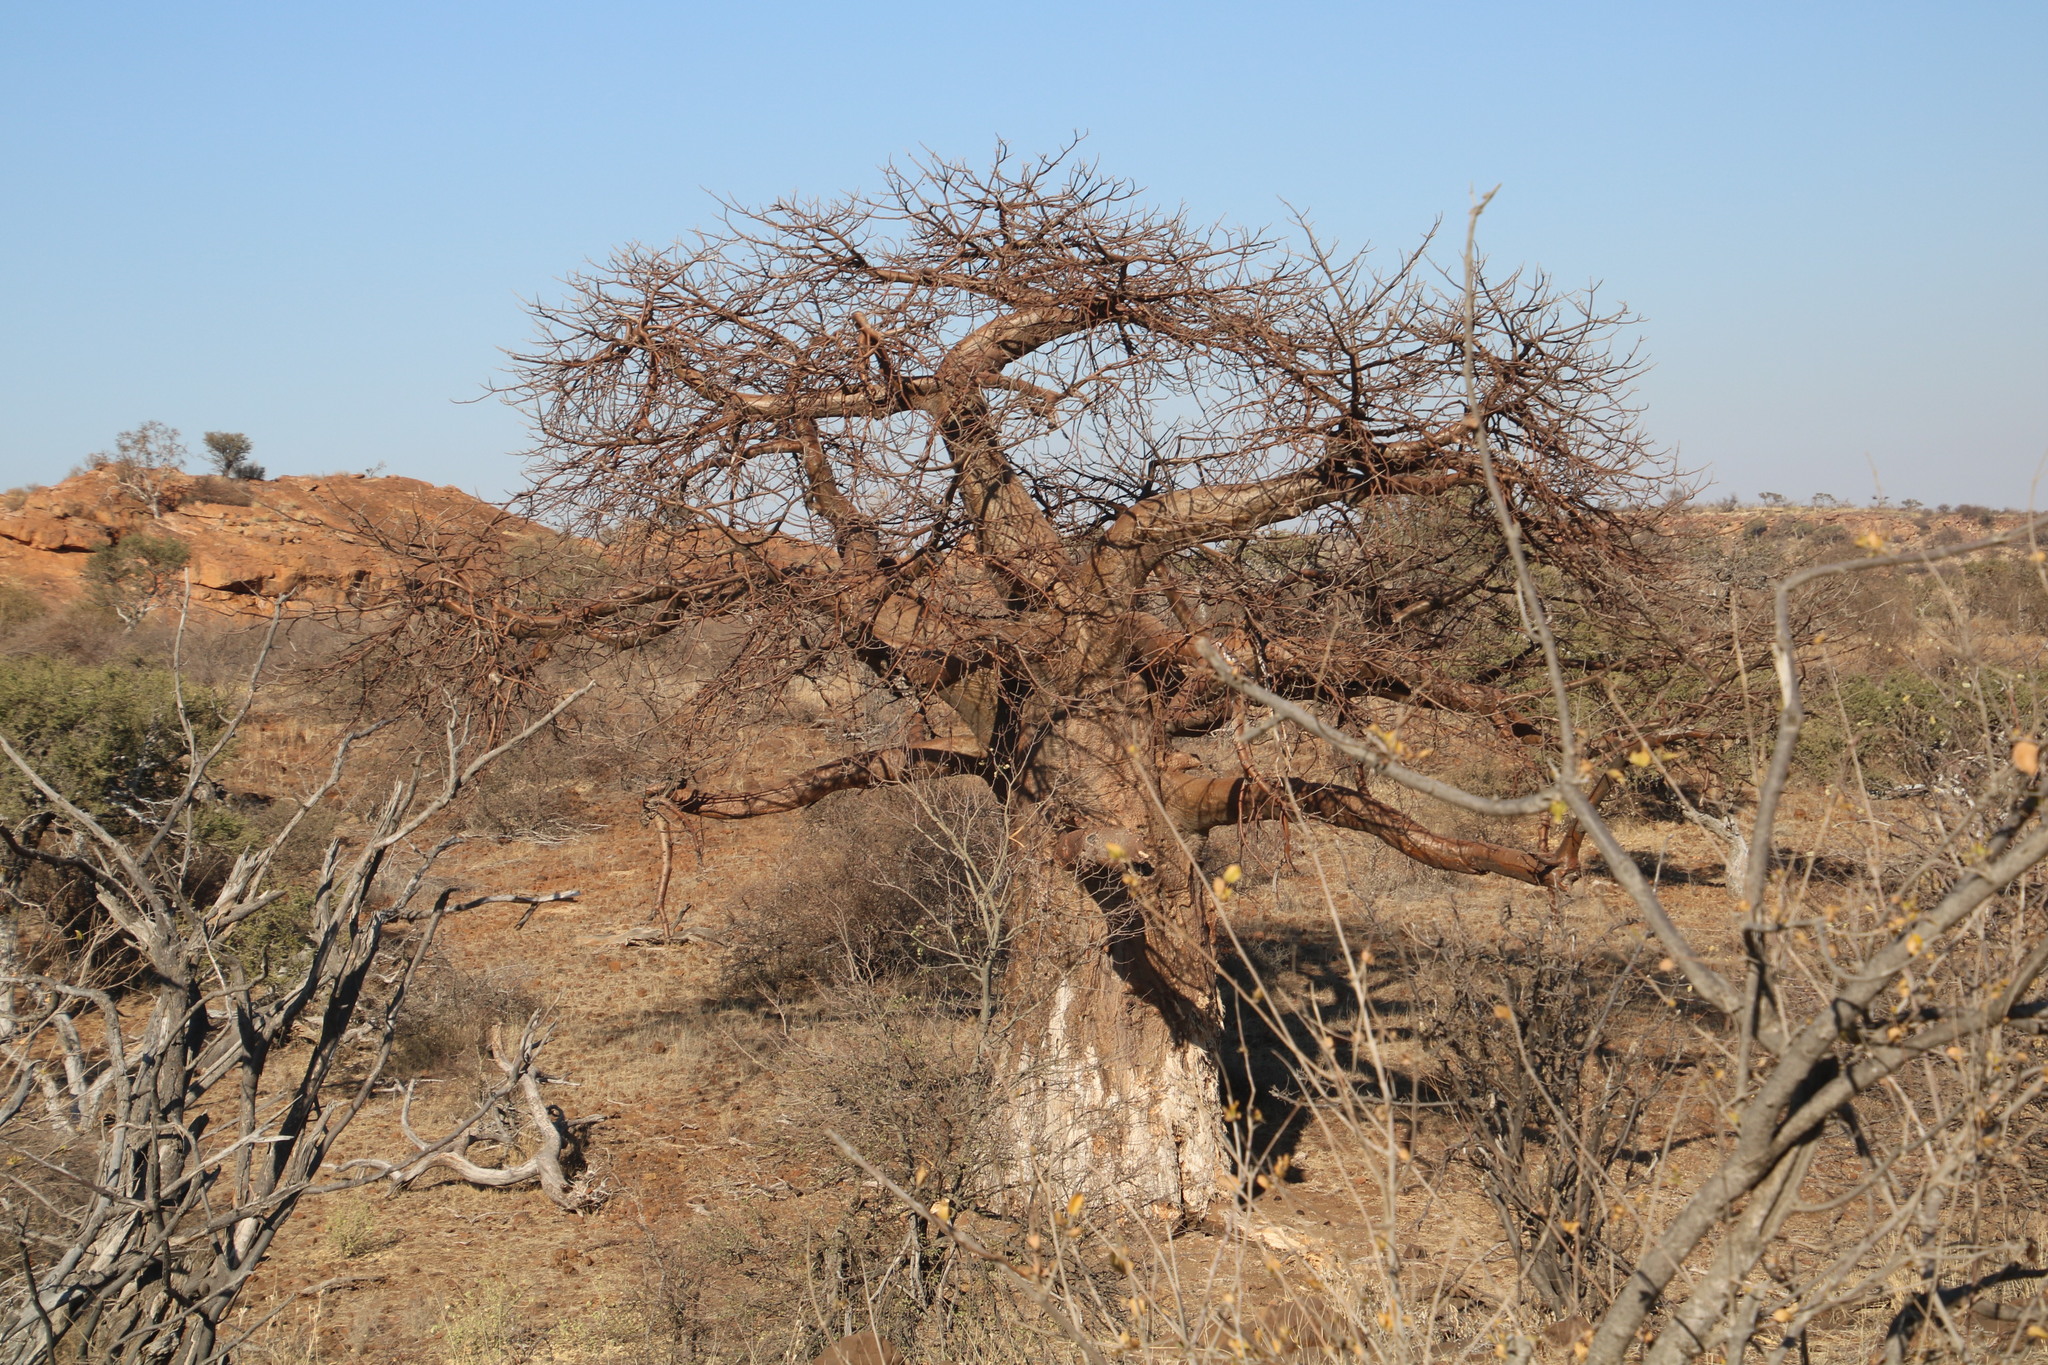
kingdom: Plantae
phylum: Tracheophyta
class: Magnoliopsida
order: Malvales
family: Malvaceae
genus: Adansonia
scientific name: Adansonia digitata
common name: Dead-rat-tree
